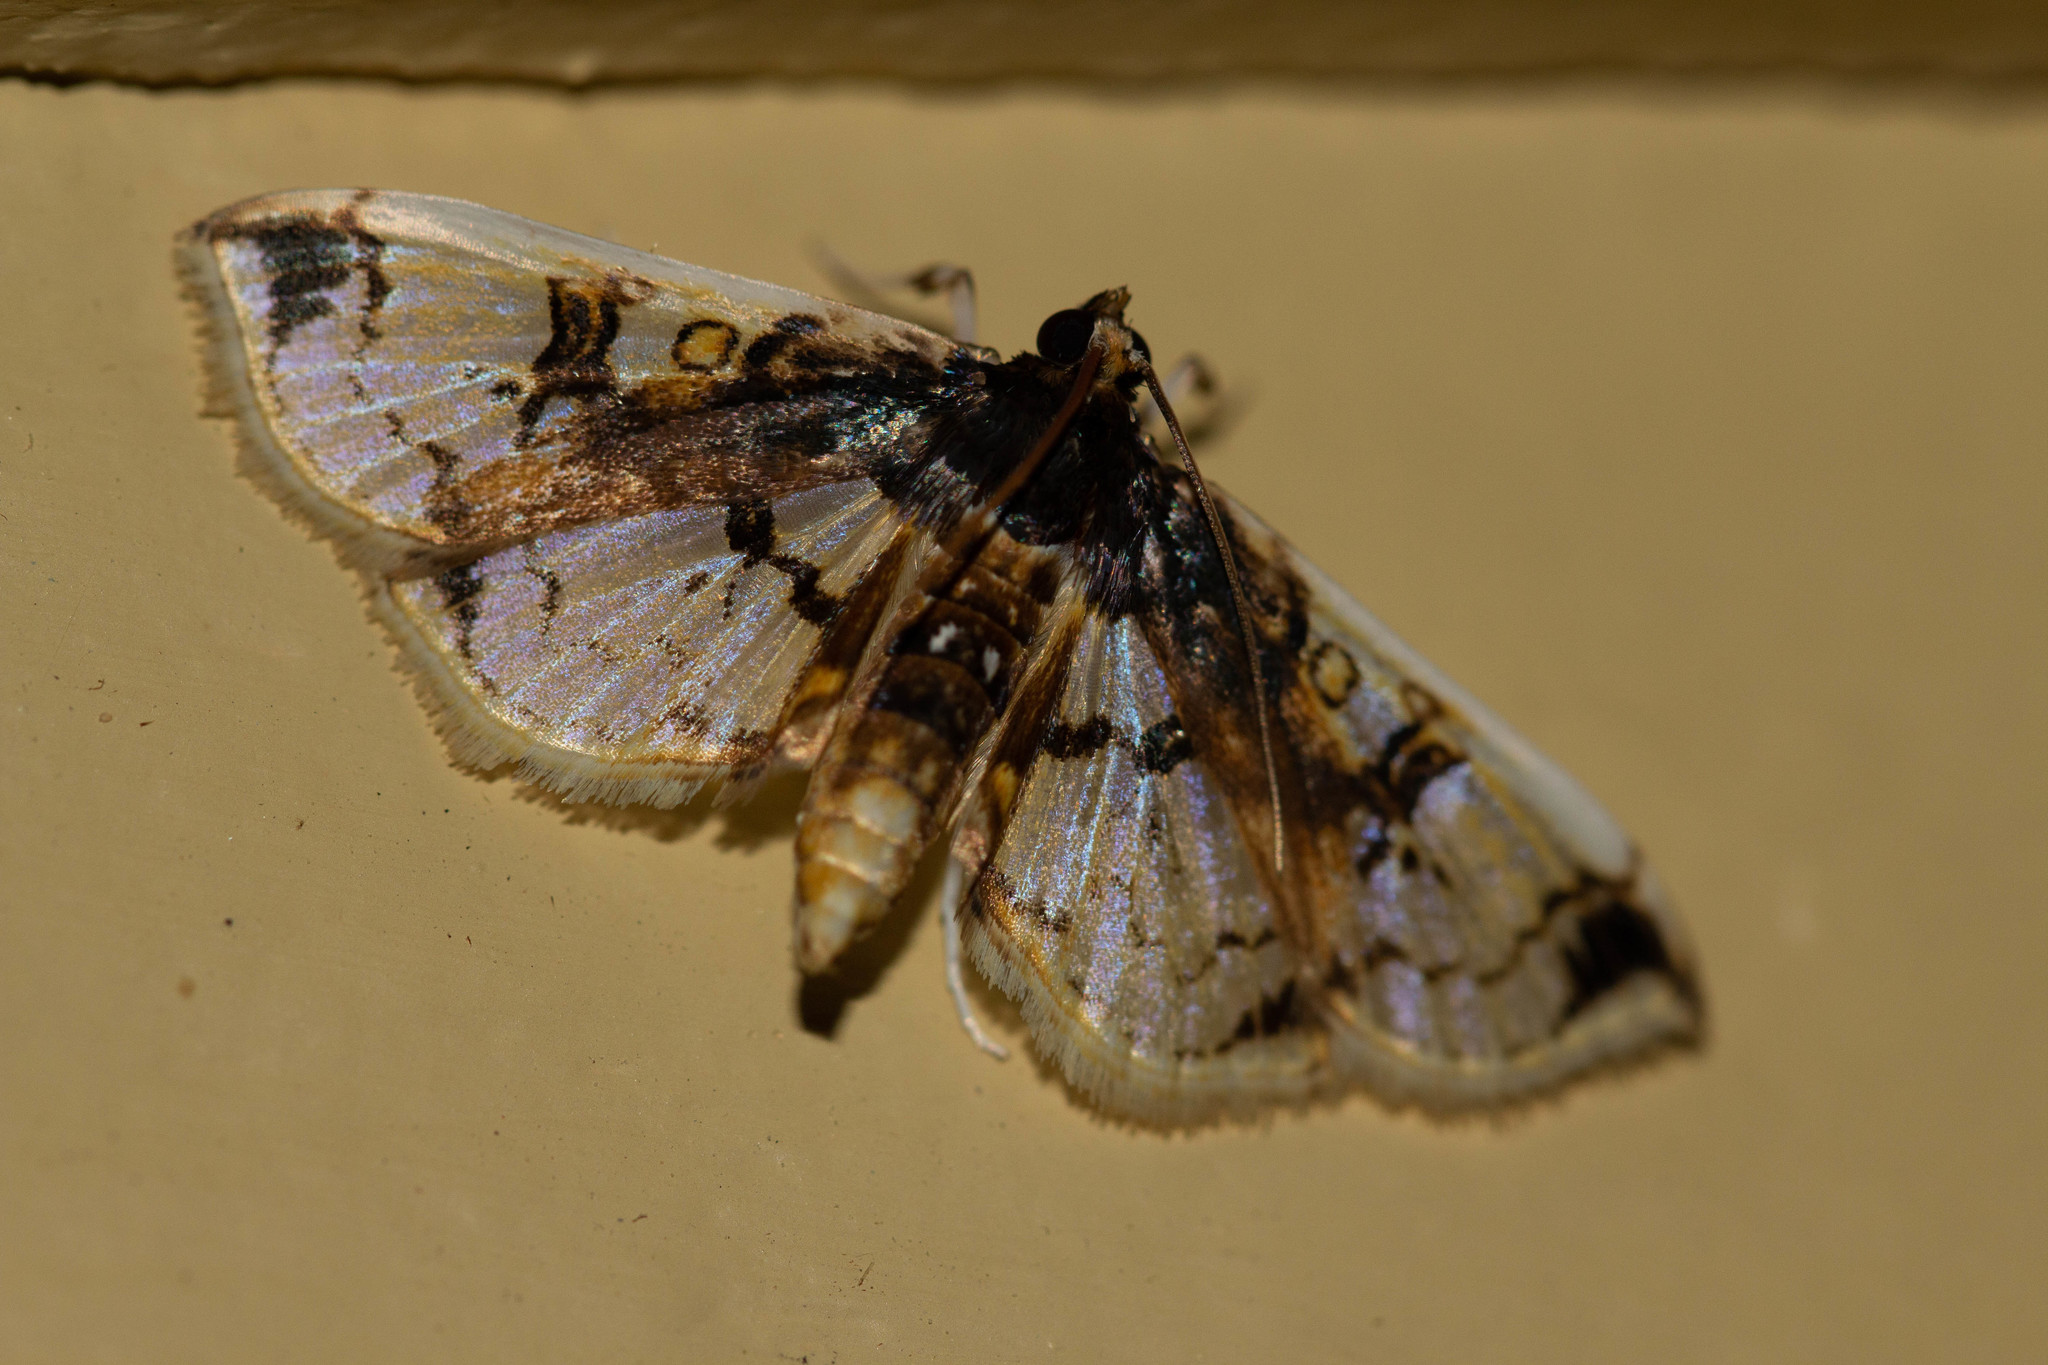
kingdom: Animalia
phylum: Arthropoda
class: Insecta
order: Lepidoptera
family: Crambidae
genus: Compacta
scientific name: Compacta capitalis
